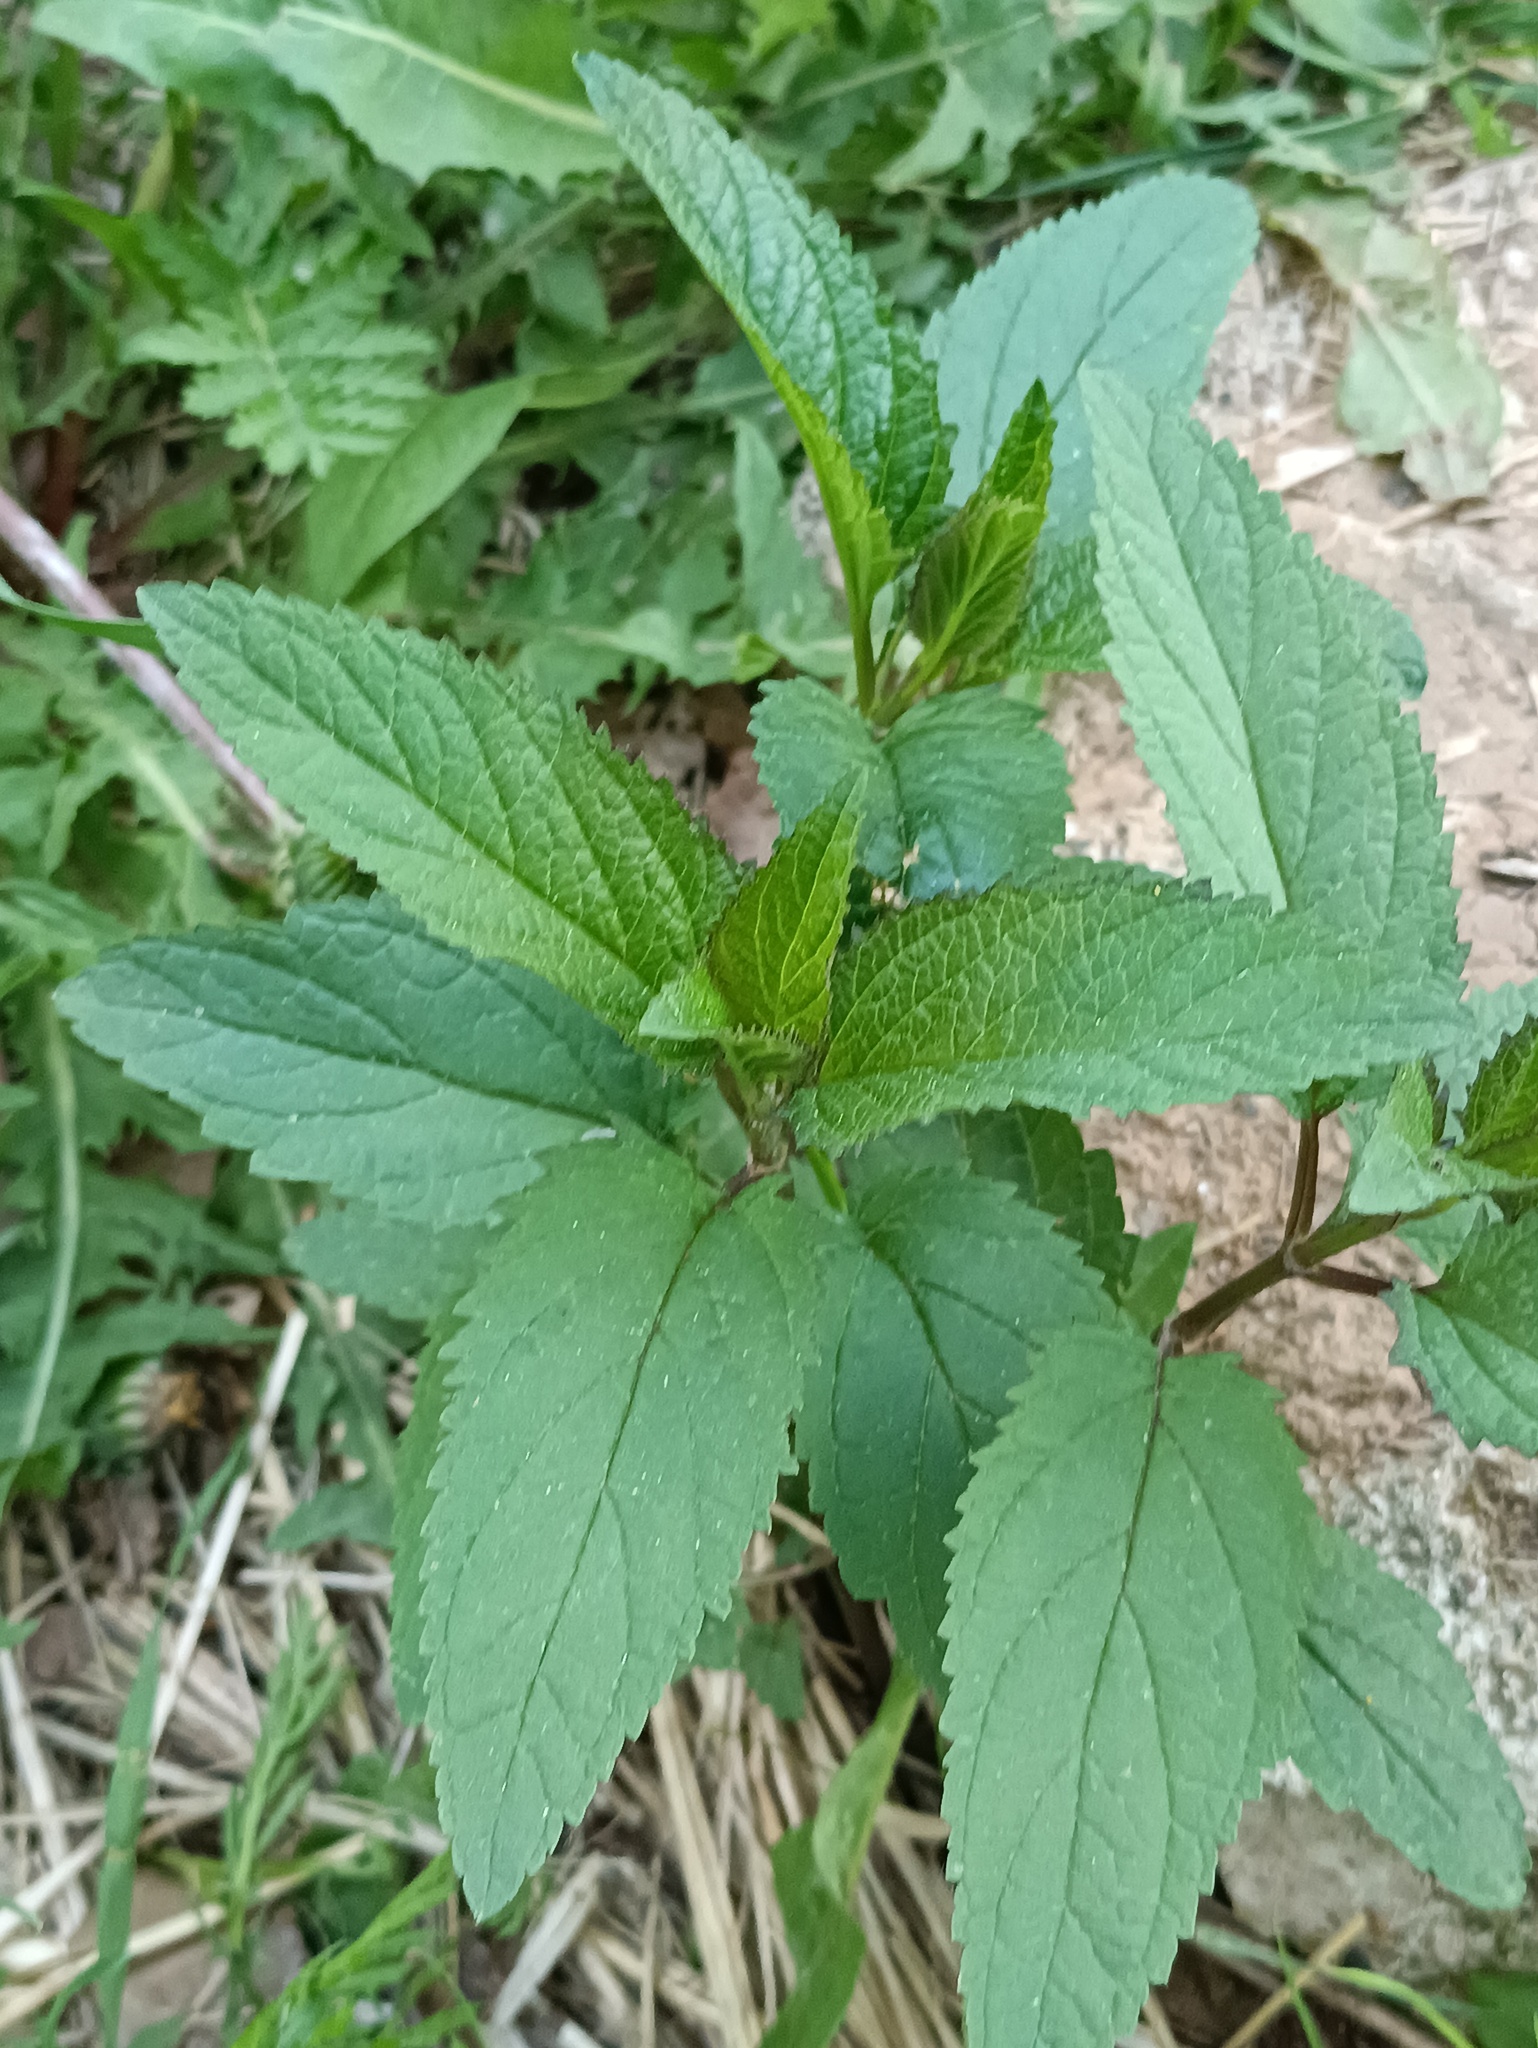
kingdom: Plantae
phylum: Tracheophyta
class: Magnoliopsida
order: Lamiales
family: Scrophulariaceae
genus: Scrophularia
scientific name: Scrophularia nodosa
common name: Common figwort
